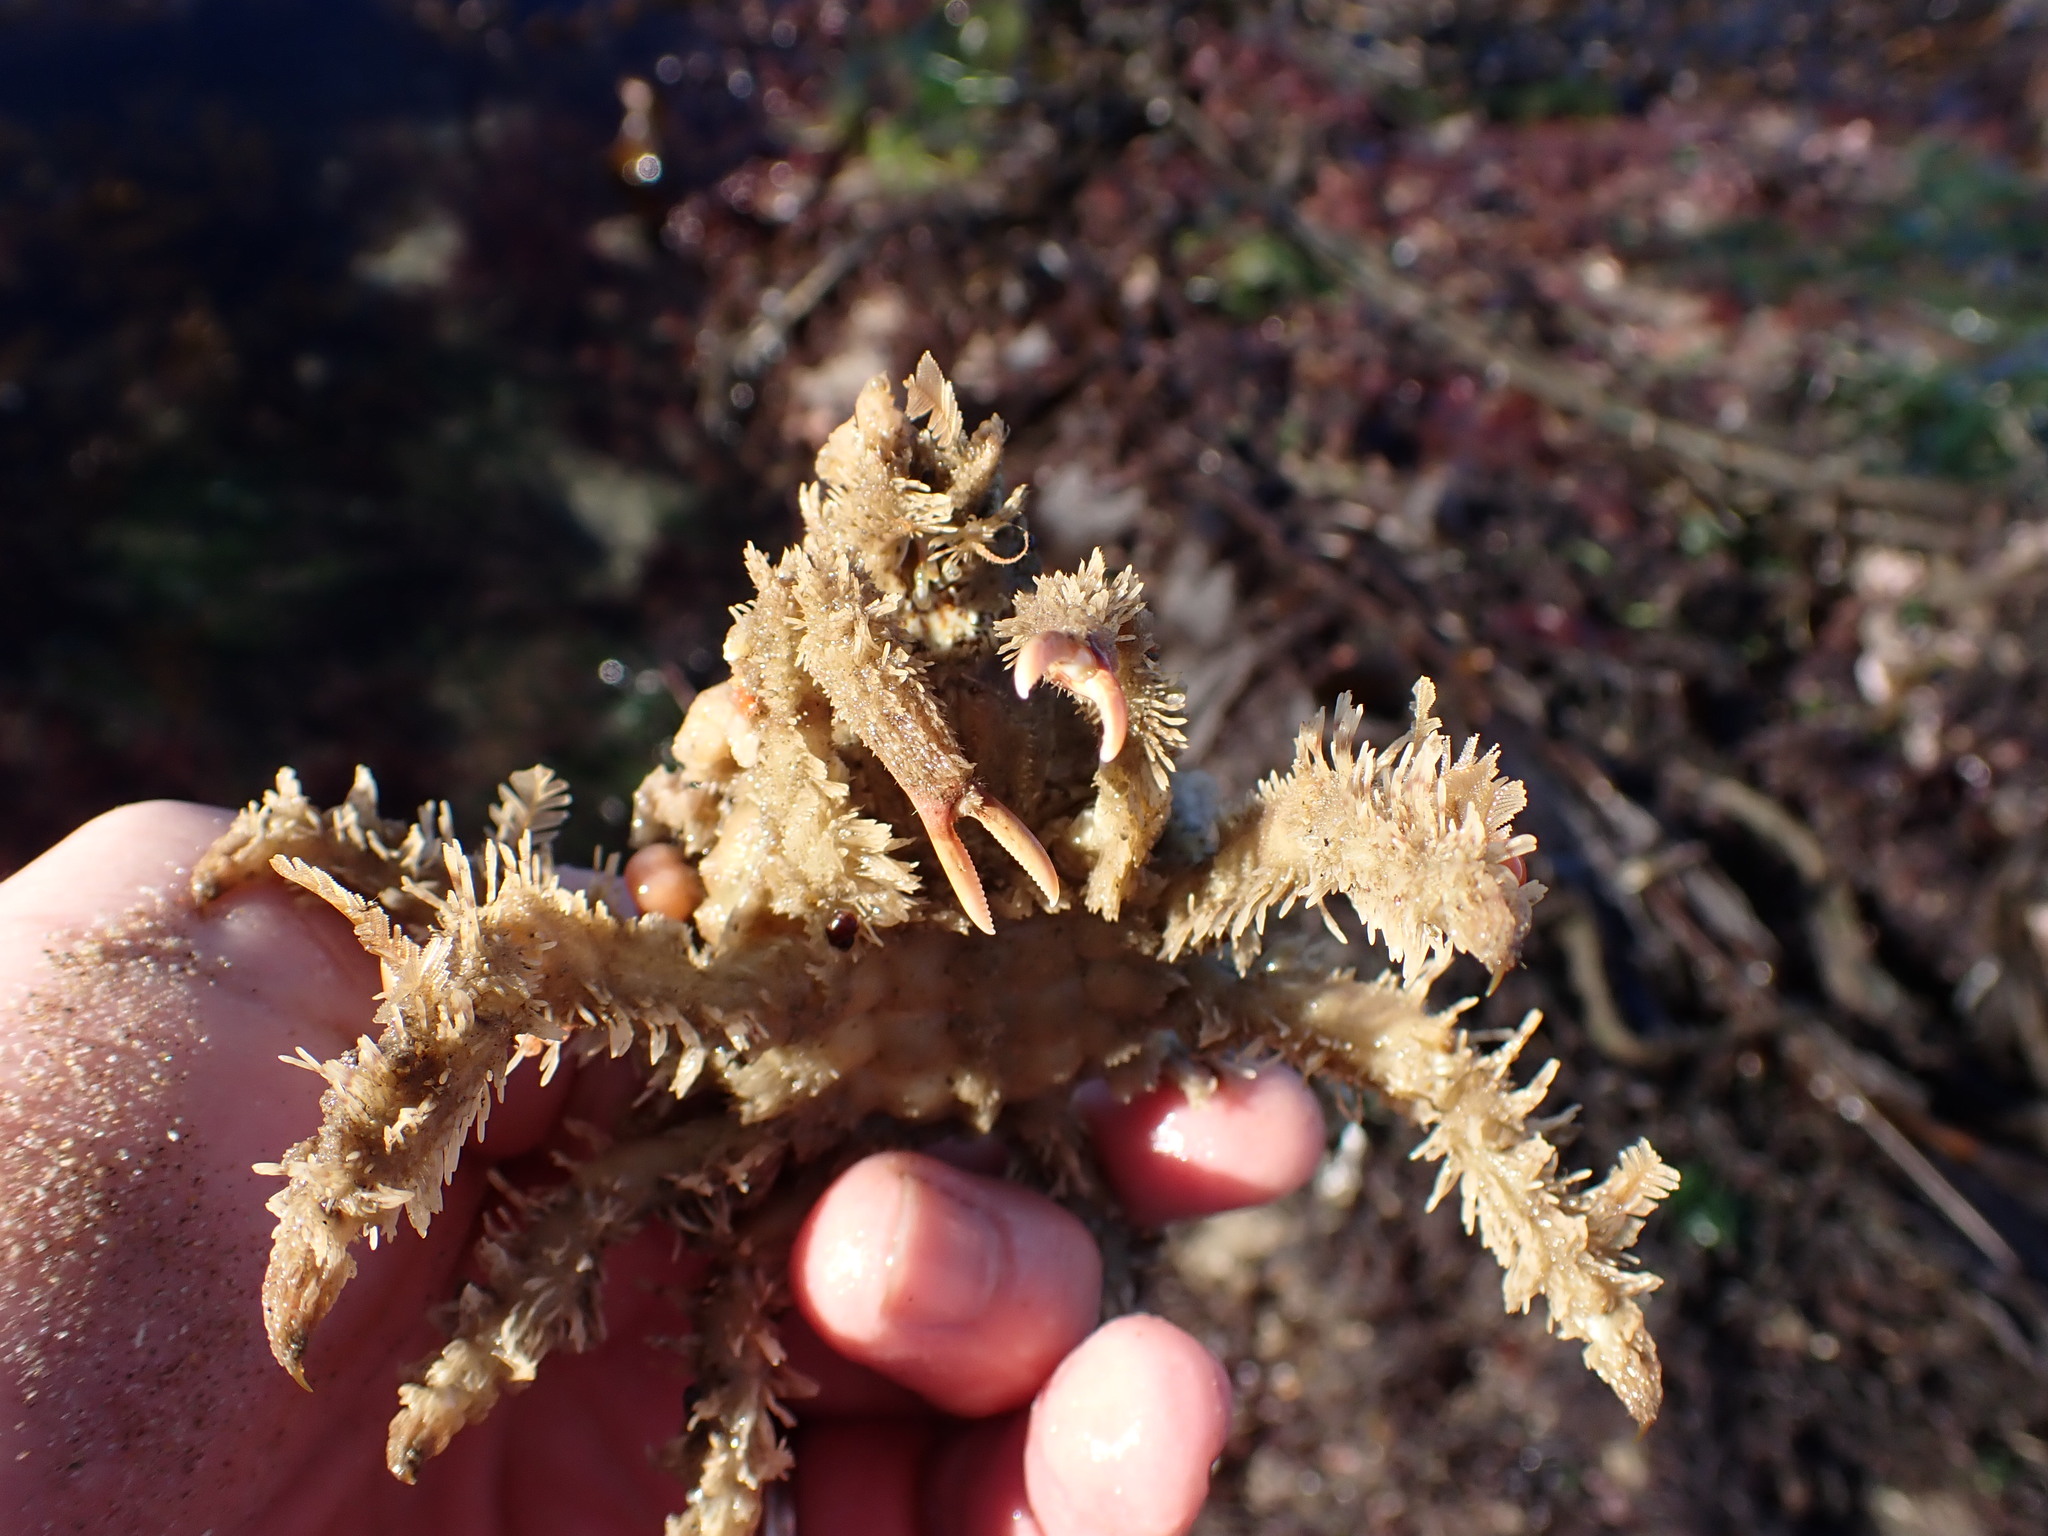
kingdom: Animalia
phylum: Arthropoda
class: Malacostraca
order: Decapoda
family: Epialtidae
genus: Loxorhynchus
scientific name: Loxorhynchus crispatus
